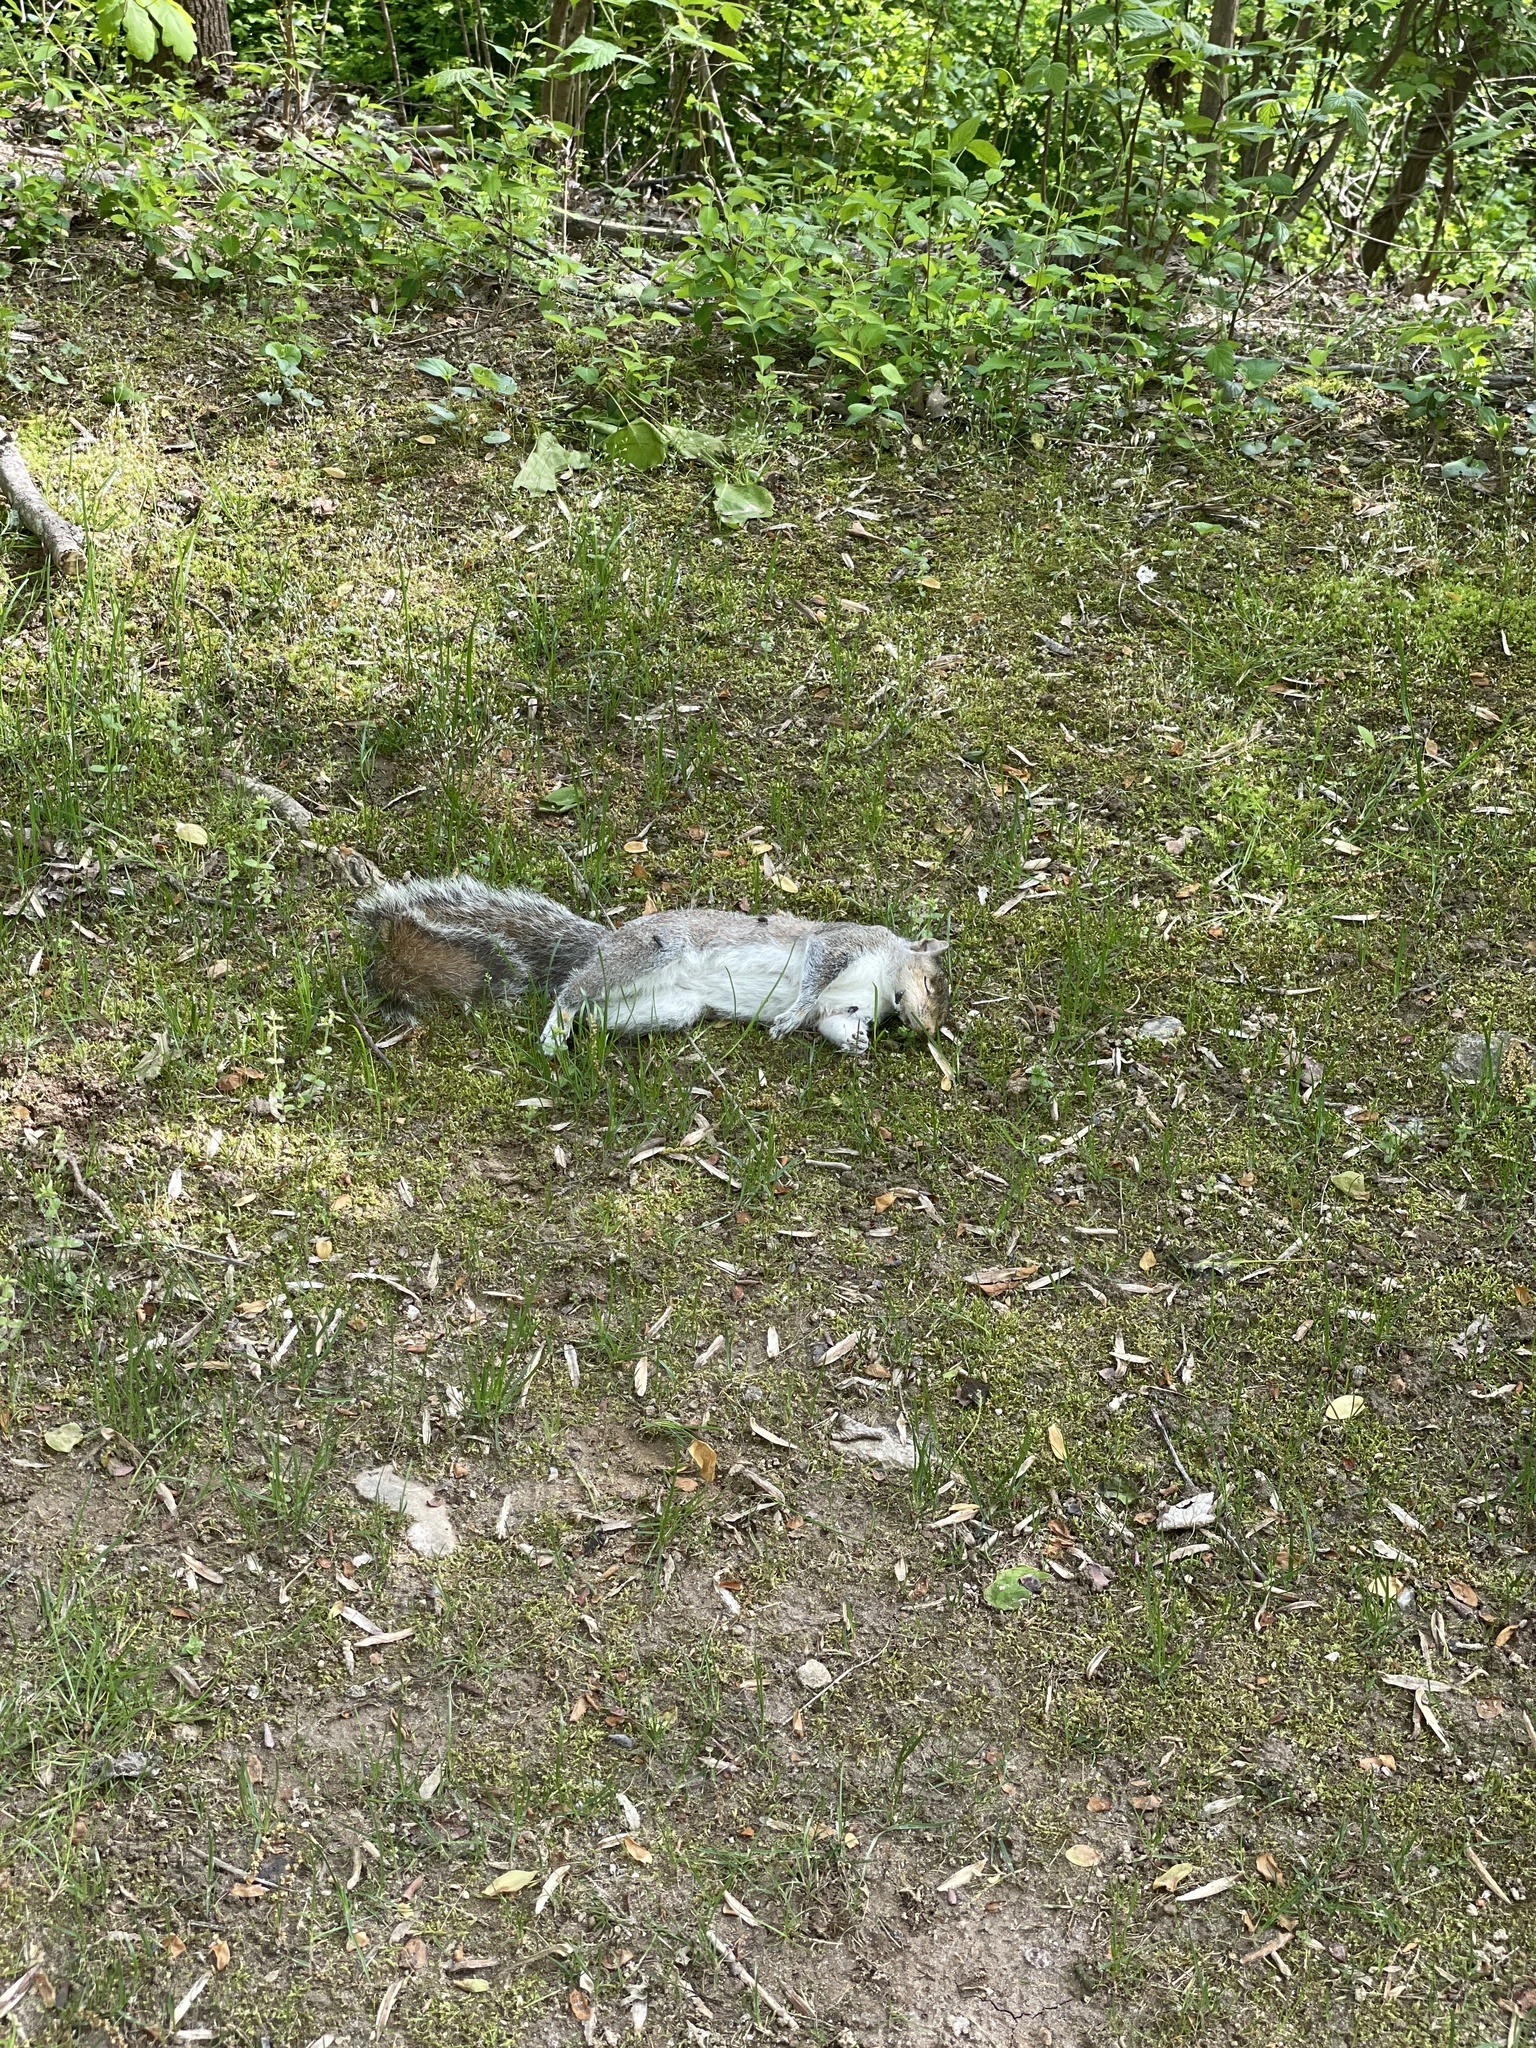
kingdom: Animalia
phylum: Chordata
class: Mammalia
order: Rodentia
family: Sciuridae
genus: Sciurus
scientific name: Sciurus carolinensis
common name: Eastern gray squirrel
